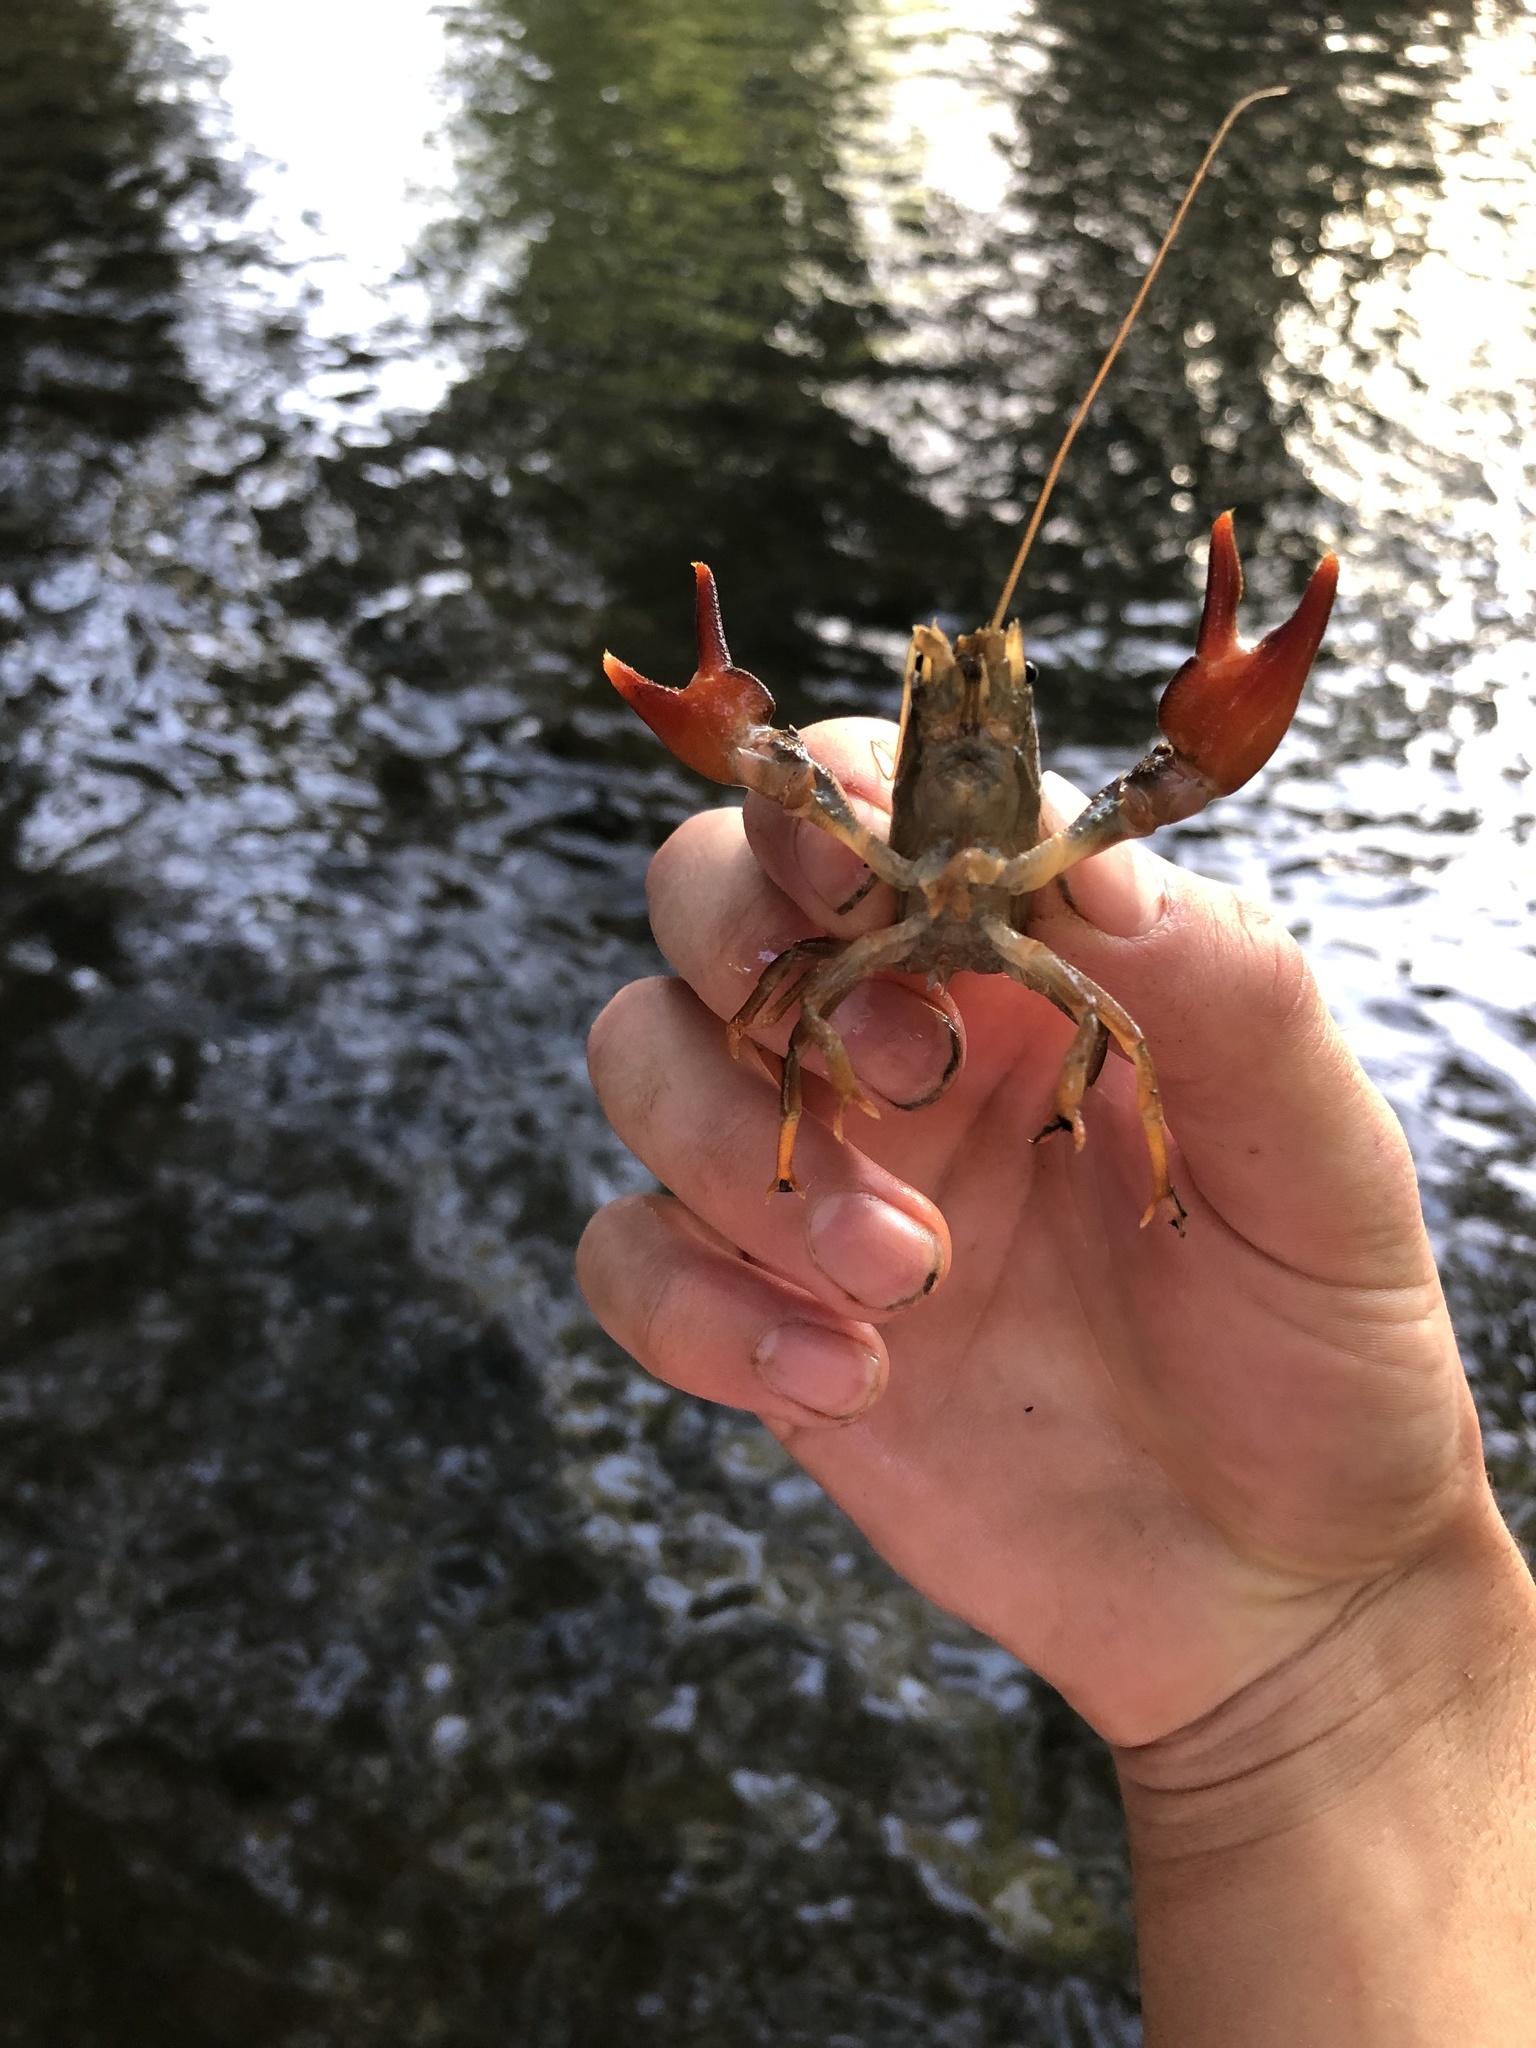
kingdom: Animalia
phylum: Arthropoda
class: Malacostraca
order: Decapoda
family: Astacidae
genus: Pacifastacus
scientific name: Pacifastacus leniusculus
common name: Signal crayfish
